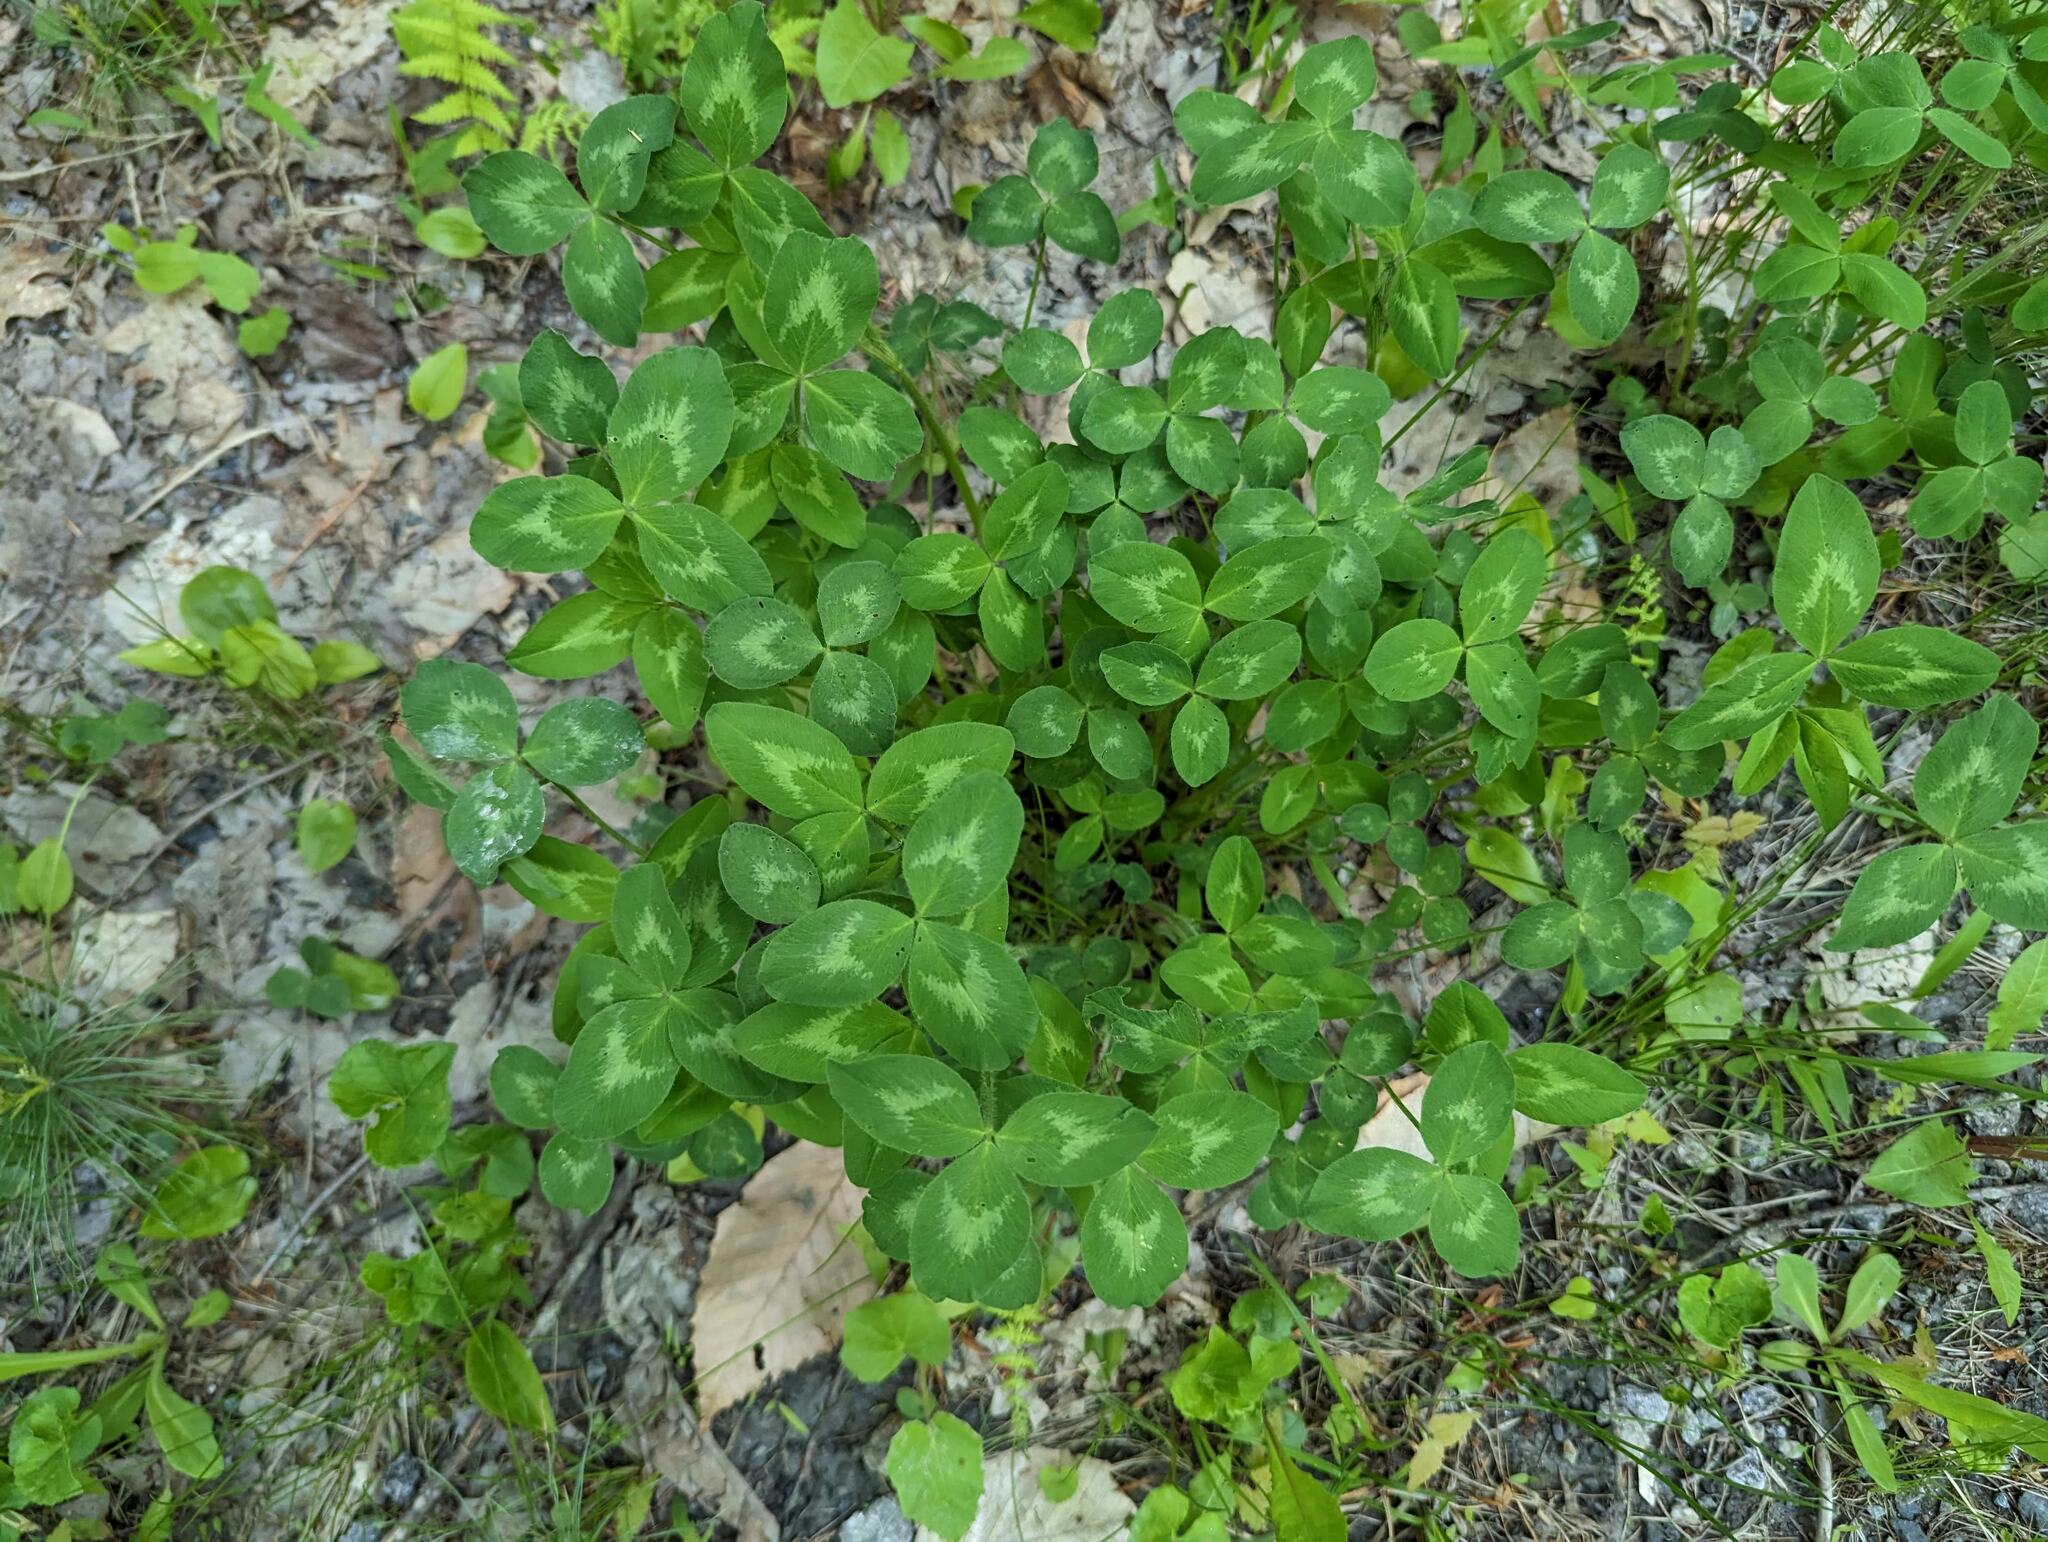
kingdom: Plantae
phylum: Tracheophyta
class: Magnoliopsida
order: Fabales
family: Fabaceae
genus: Trifolium
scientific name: Trifolium pratense
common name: Red clover
